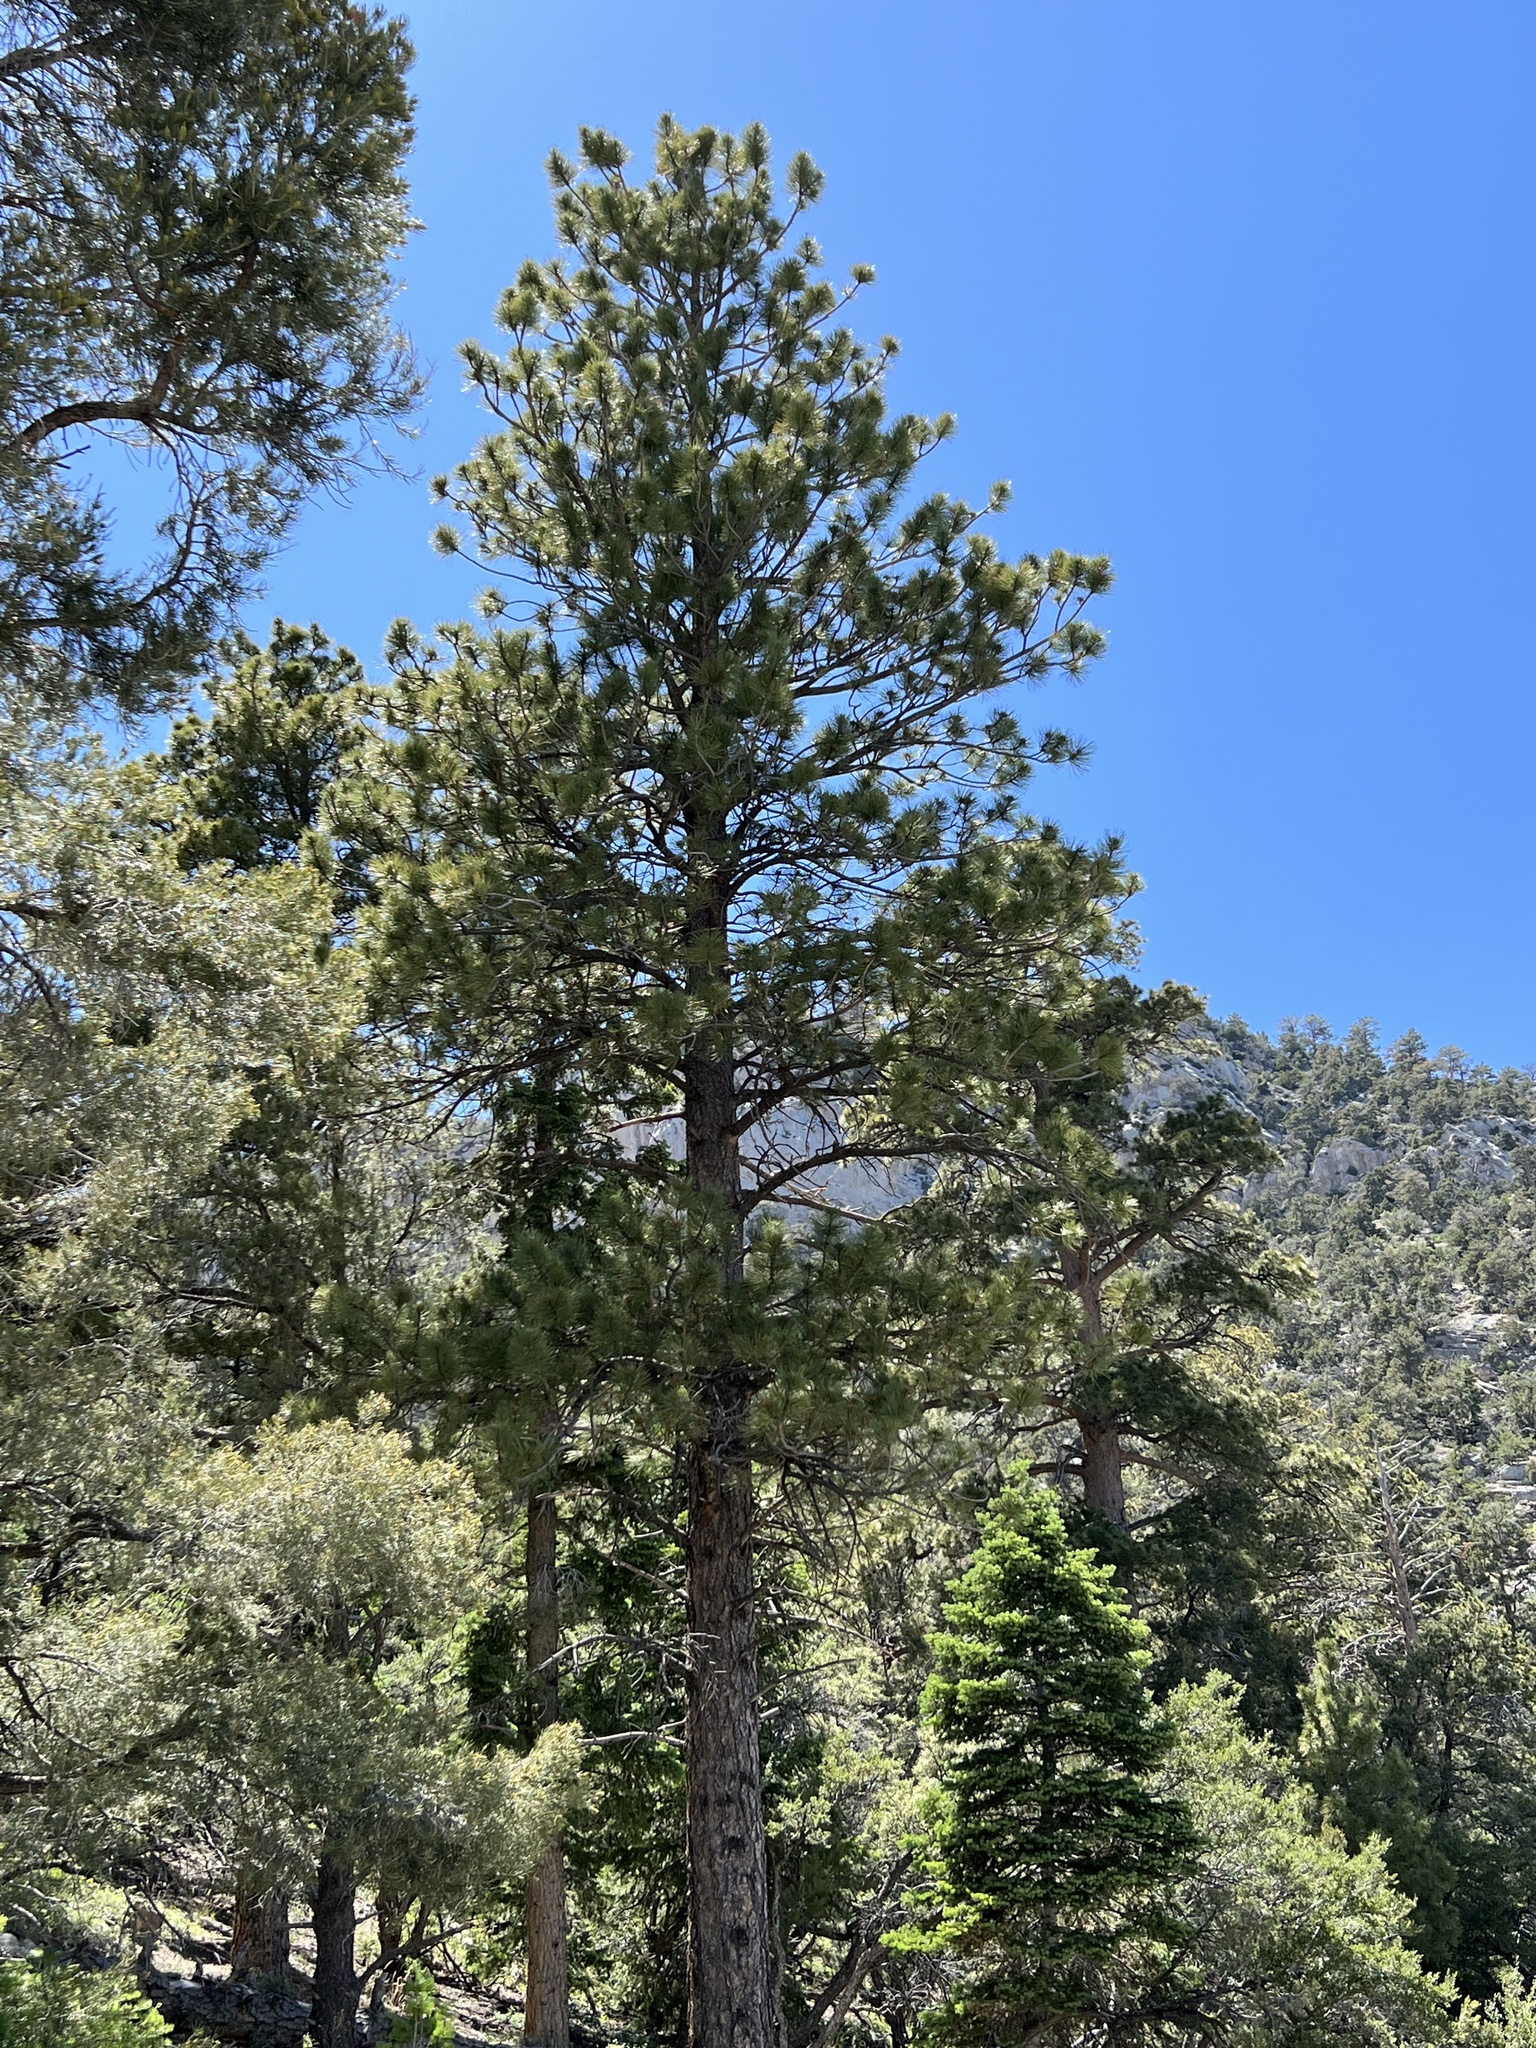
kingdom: Plantae
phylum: Tracheophyta
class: Pinopsida
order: Pinales
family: Pinaceae
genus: Pinus
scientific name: Pinus ponderosa
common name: Western yellow-pine
